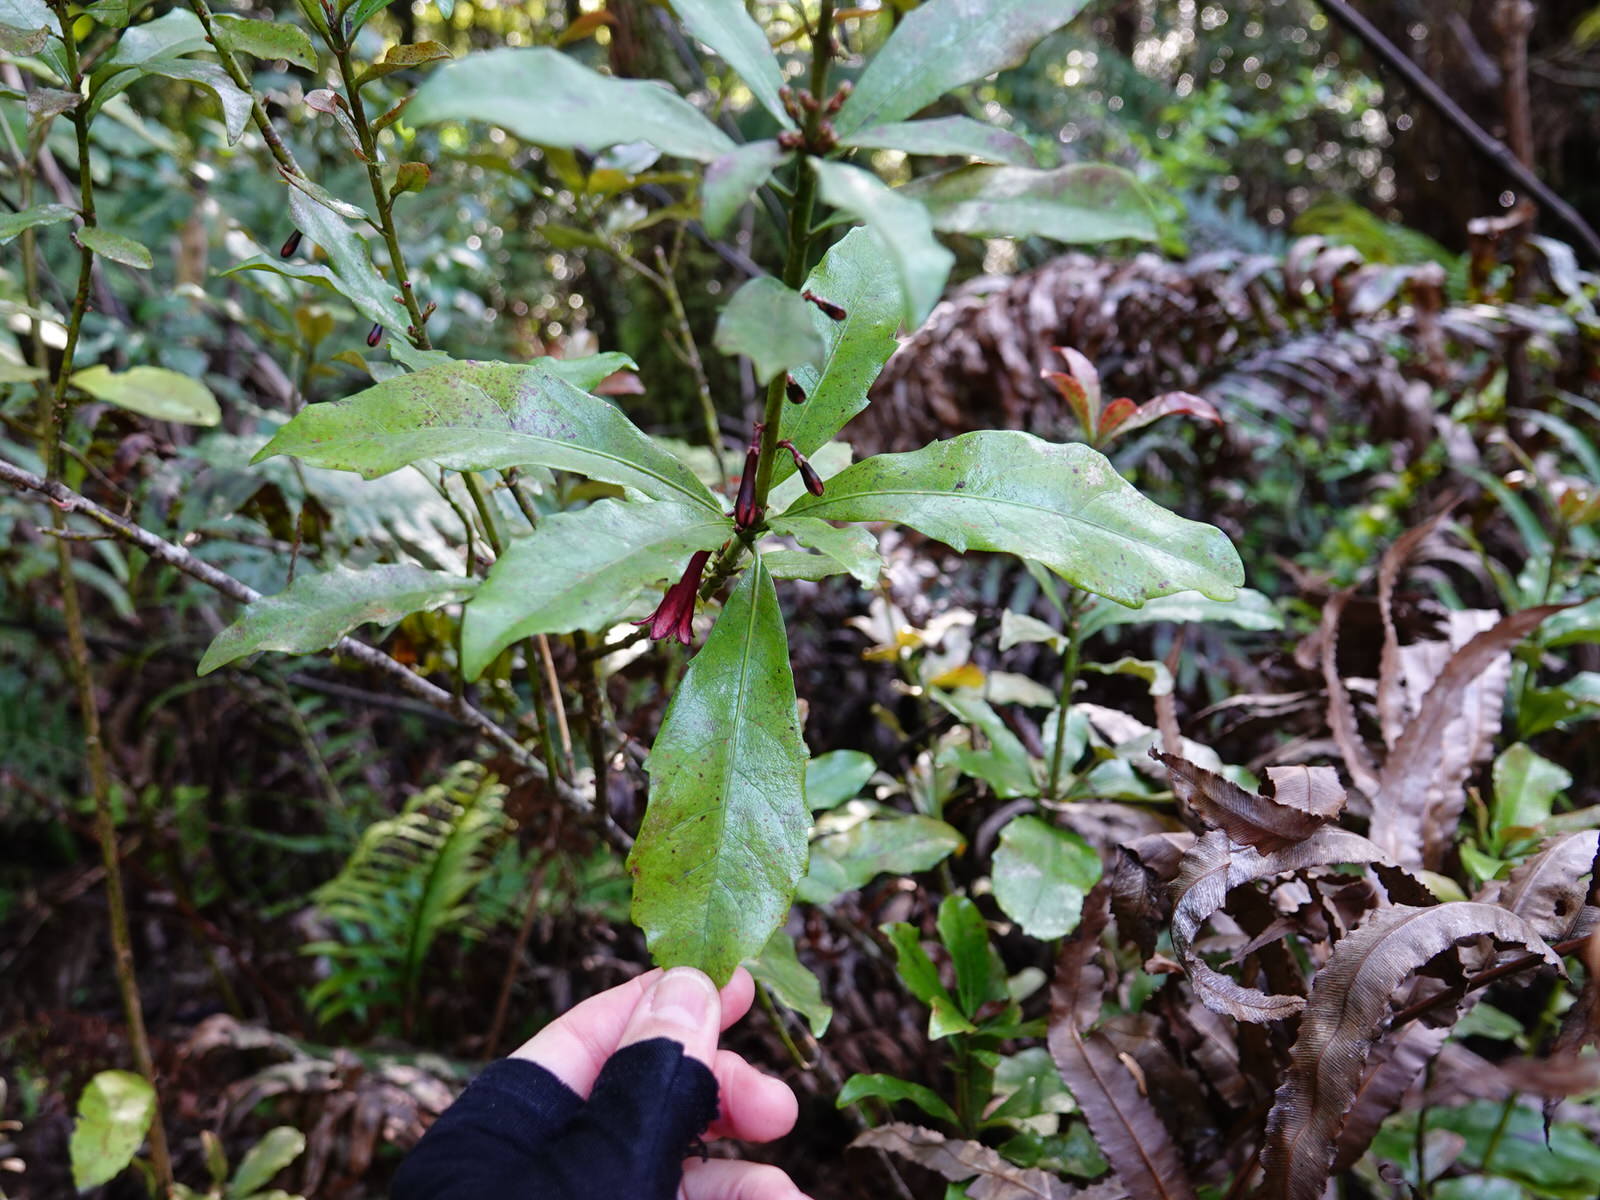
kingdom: Plantae
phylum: Tracheophyta
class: Magnoliopsida
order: Asterales
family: Alseuosmiaceae
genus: Alseuosmia
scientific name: Alseuosmia macrophylla
